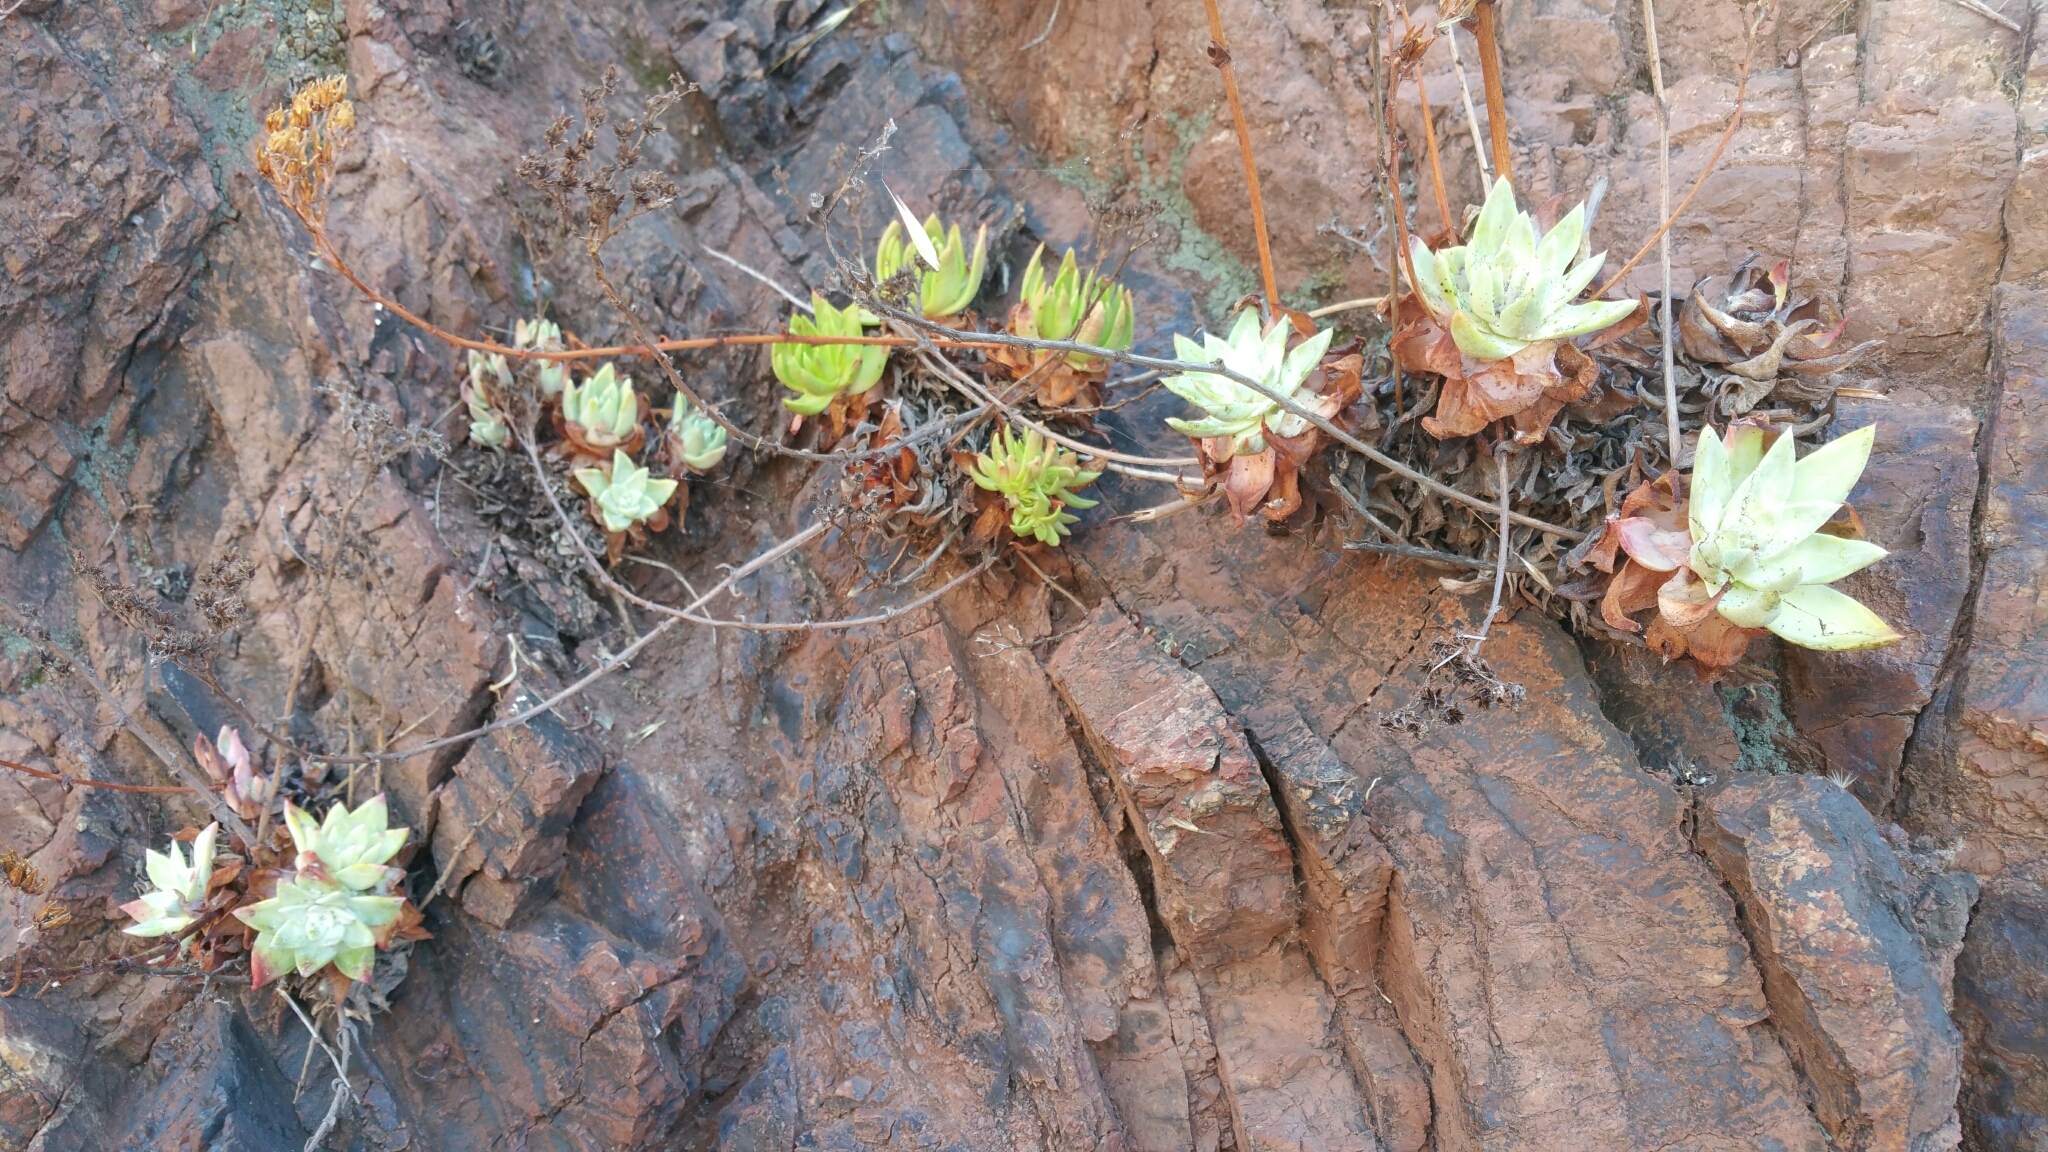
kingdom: Plantae
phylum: Tracheophyta
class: Magnoliopsida
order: Saxifragales
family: Crassulaceae
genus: Dudleya
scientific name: Dudleya farinosa
